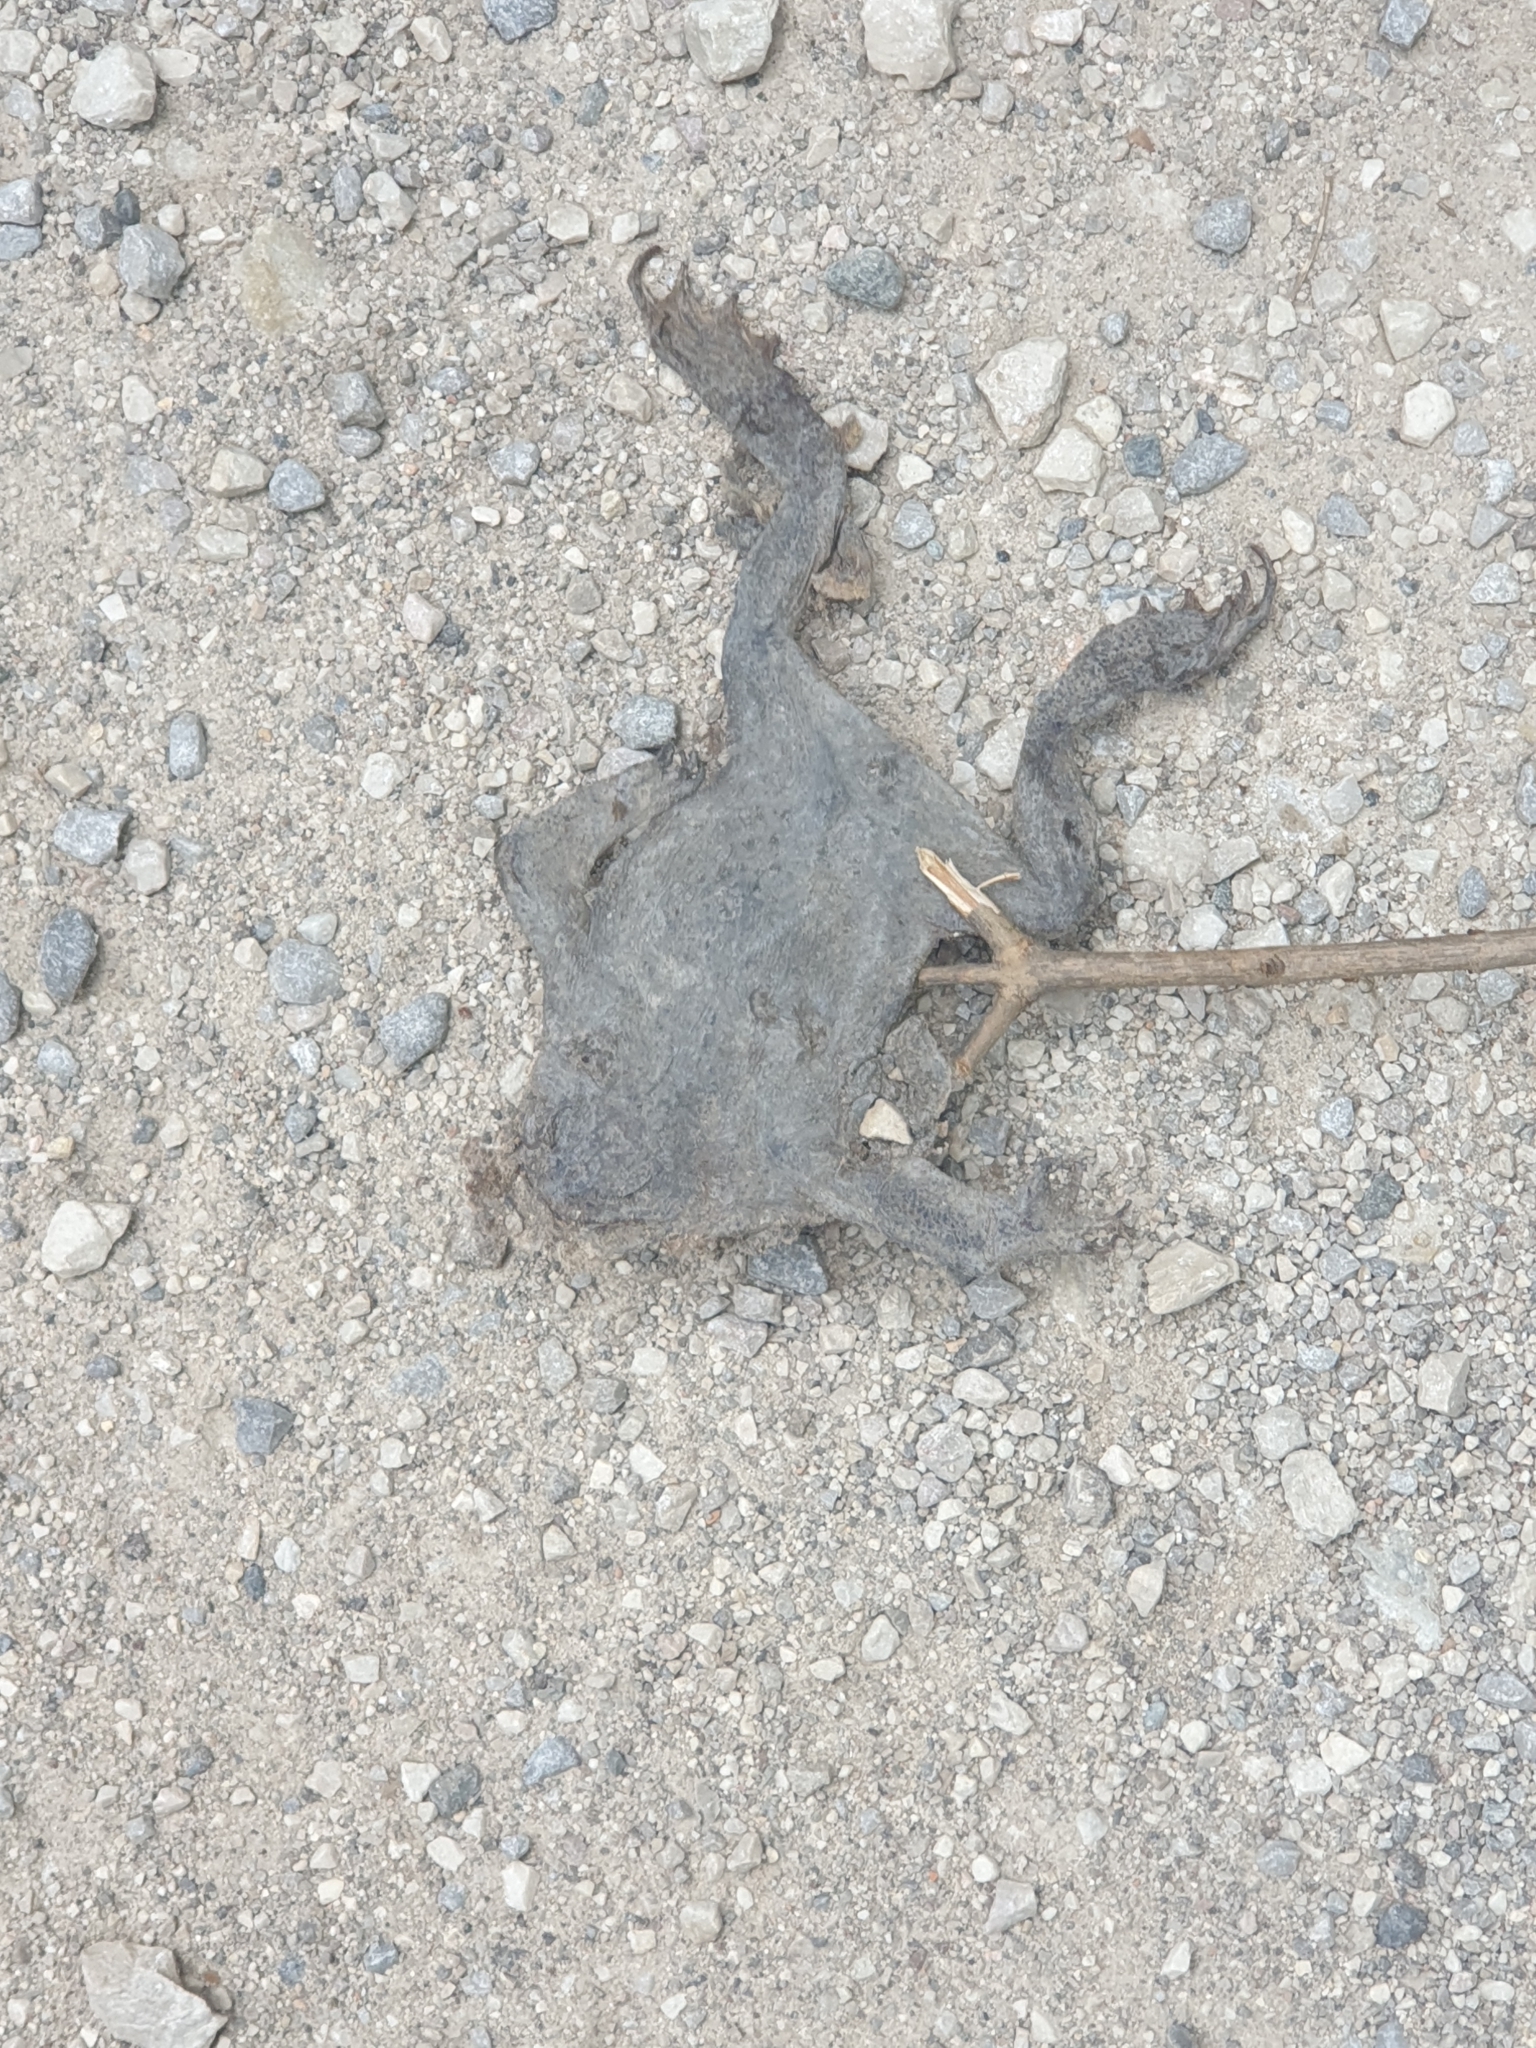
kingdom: Animalia
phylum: Chordata
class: Amphibia
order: Anura
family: Bufonidae
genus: Bufo
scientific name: Bufo bufo
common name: Common toad
